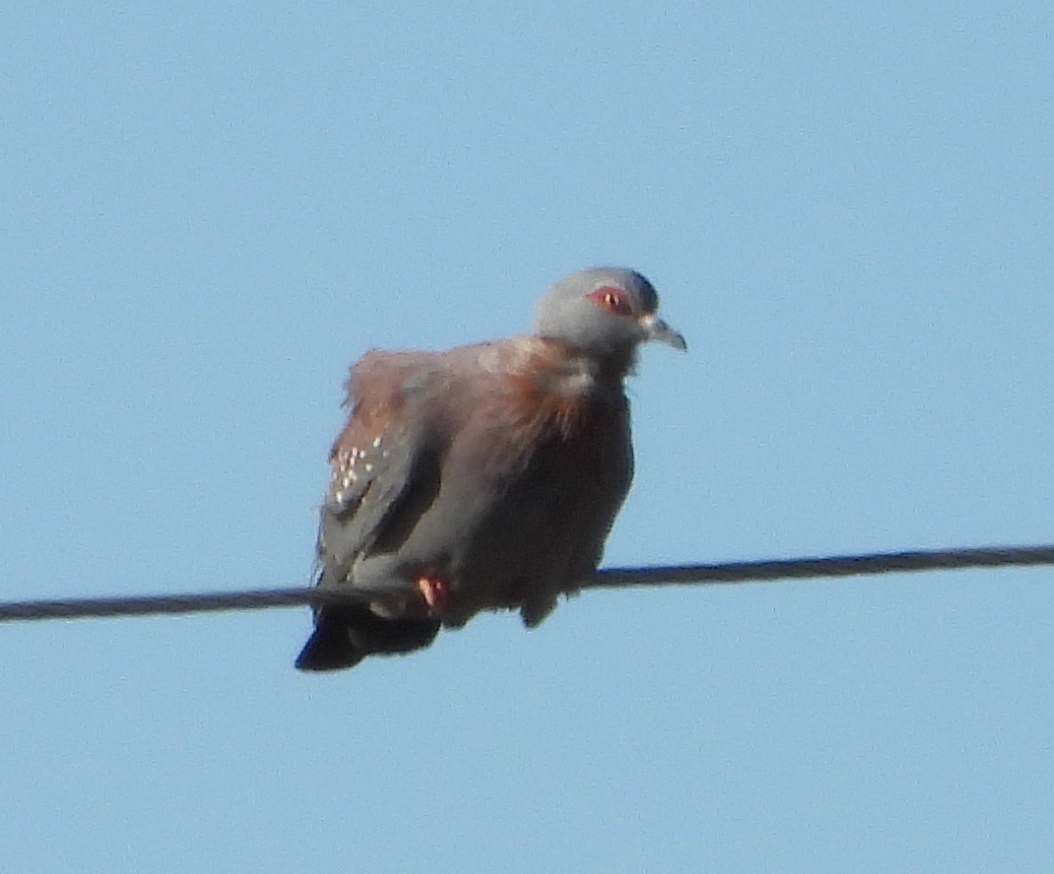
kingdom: Animalia
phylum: Chordata
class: Aves
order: Columbiformes
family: Columbidae
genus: Columba
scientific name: Columba guinea
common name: Speckled pigeon
